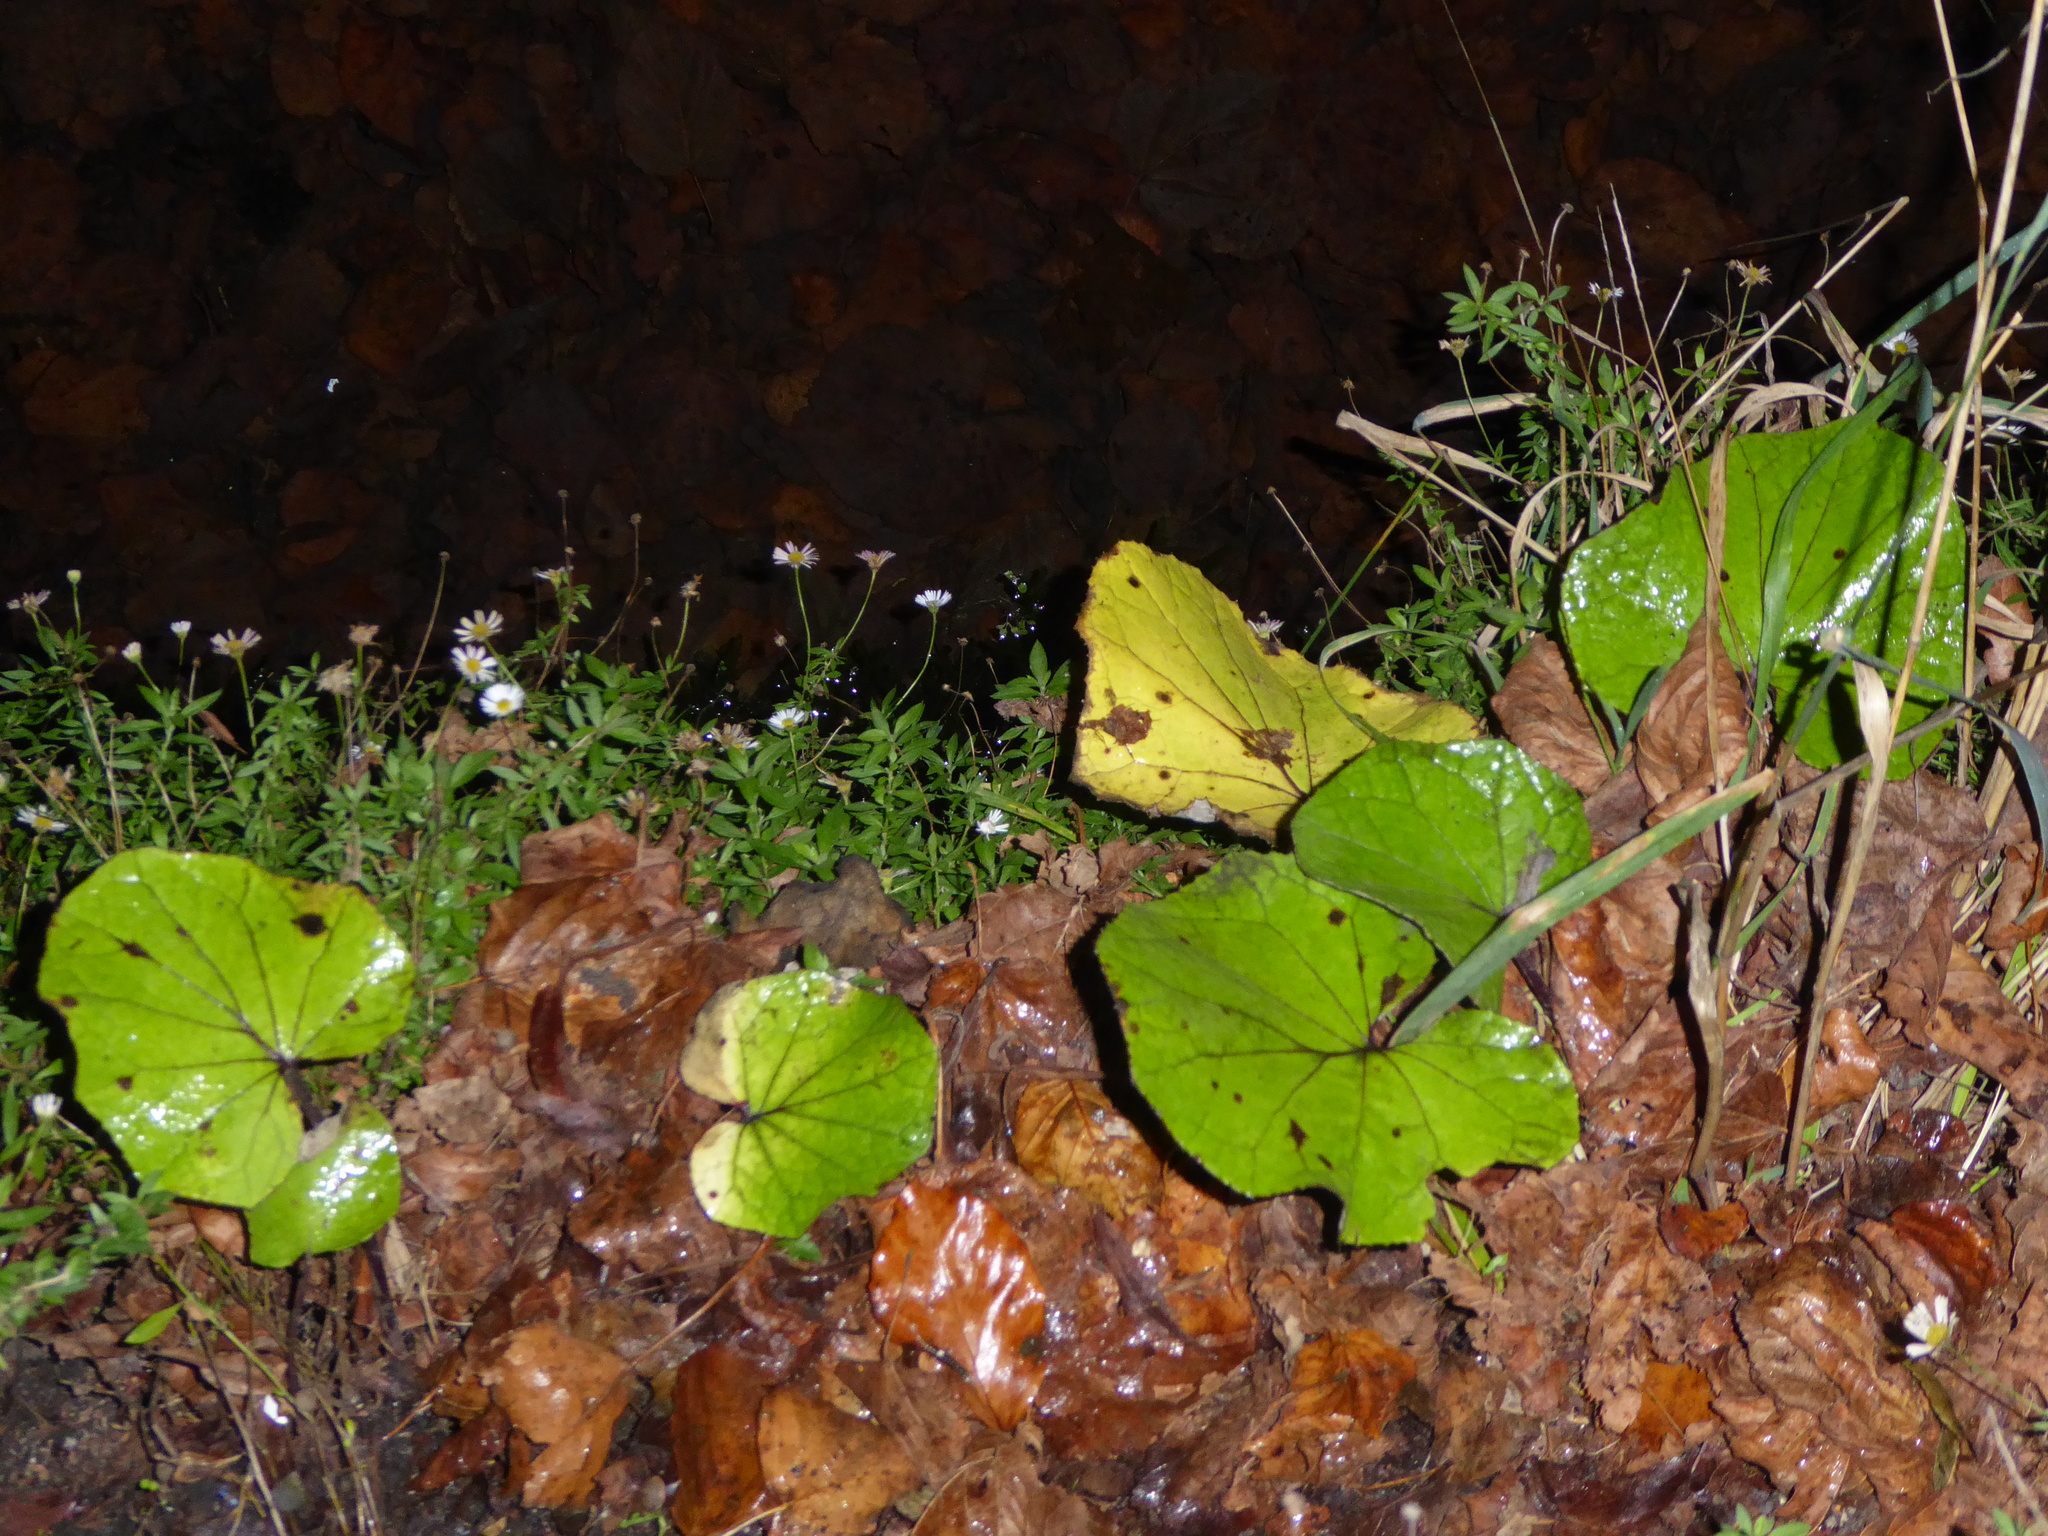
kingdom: Plantae
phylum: Tracheophyta
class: Magnoliopsida
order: Asterales
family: Asteraceae
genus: Tussilago
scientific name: Tussilago farfara
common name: Coltsfoot
